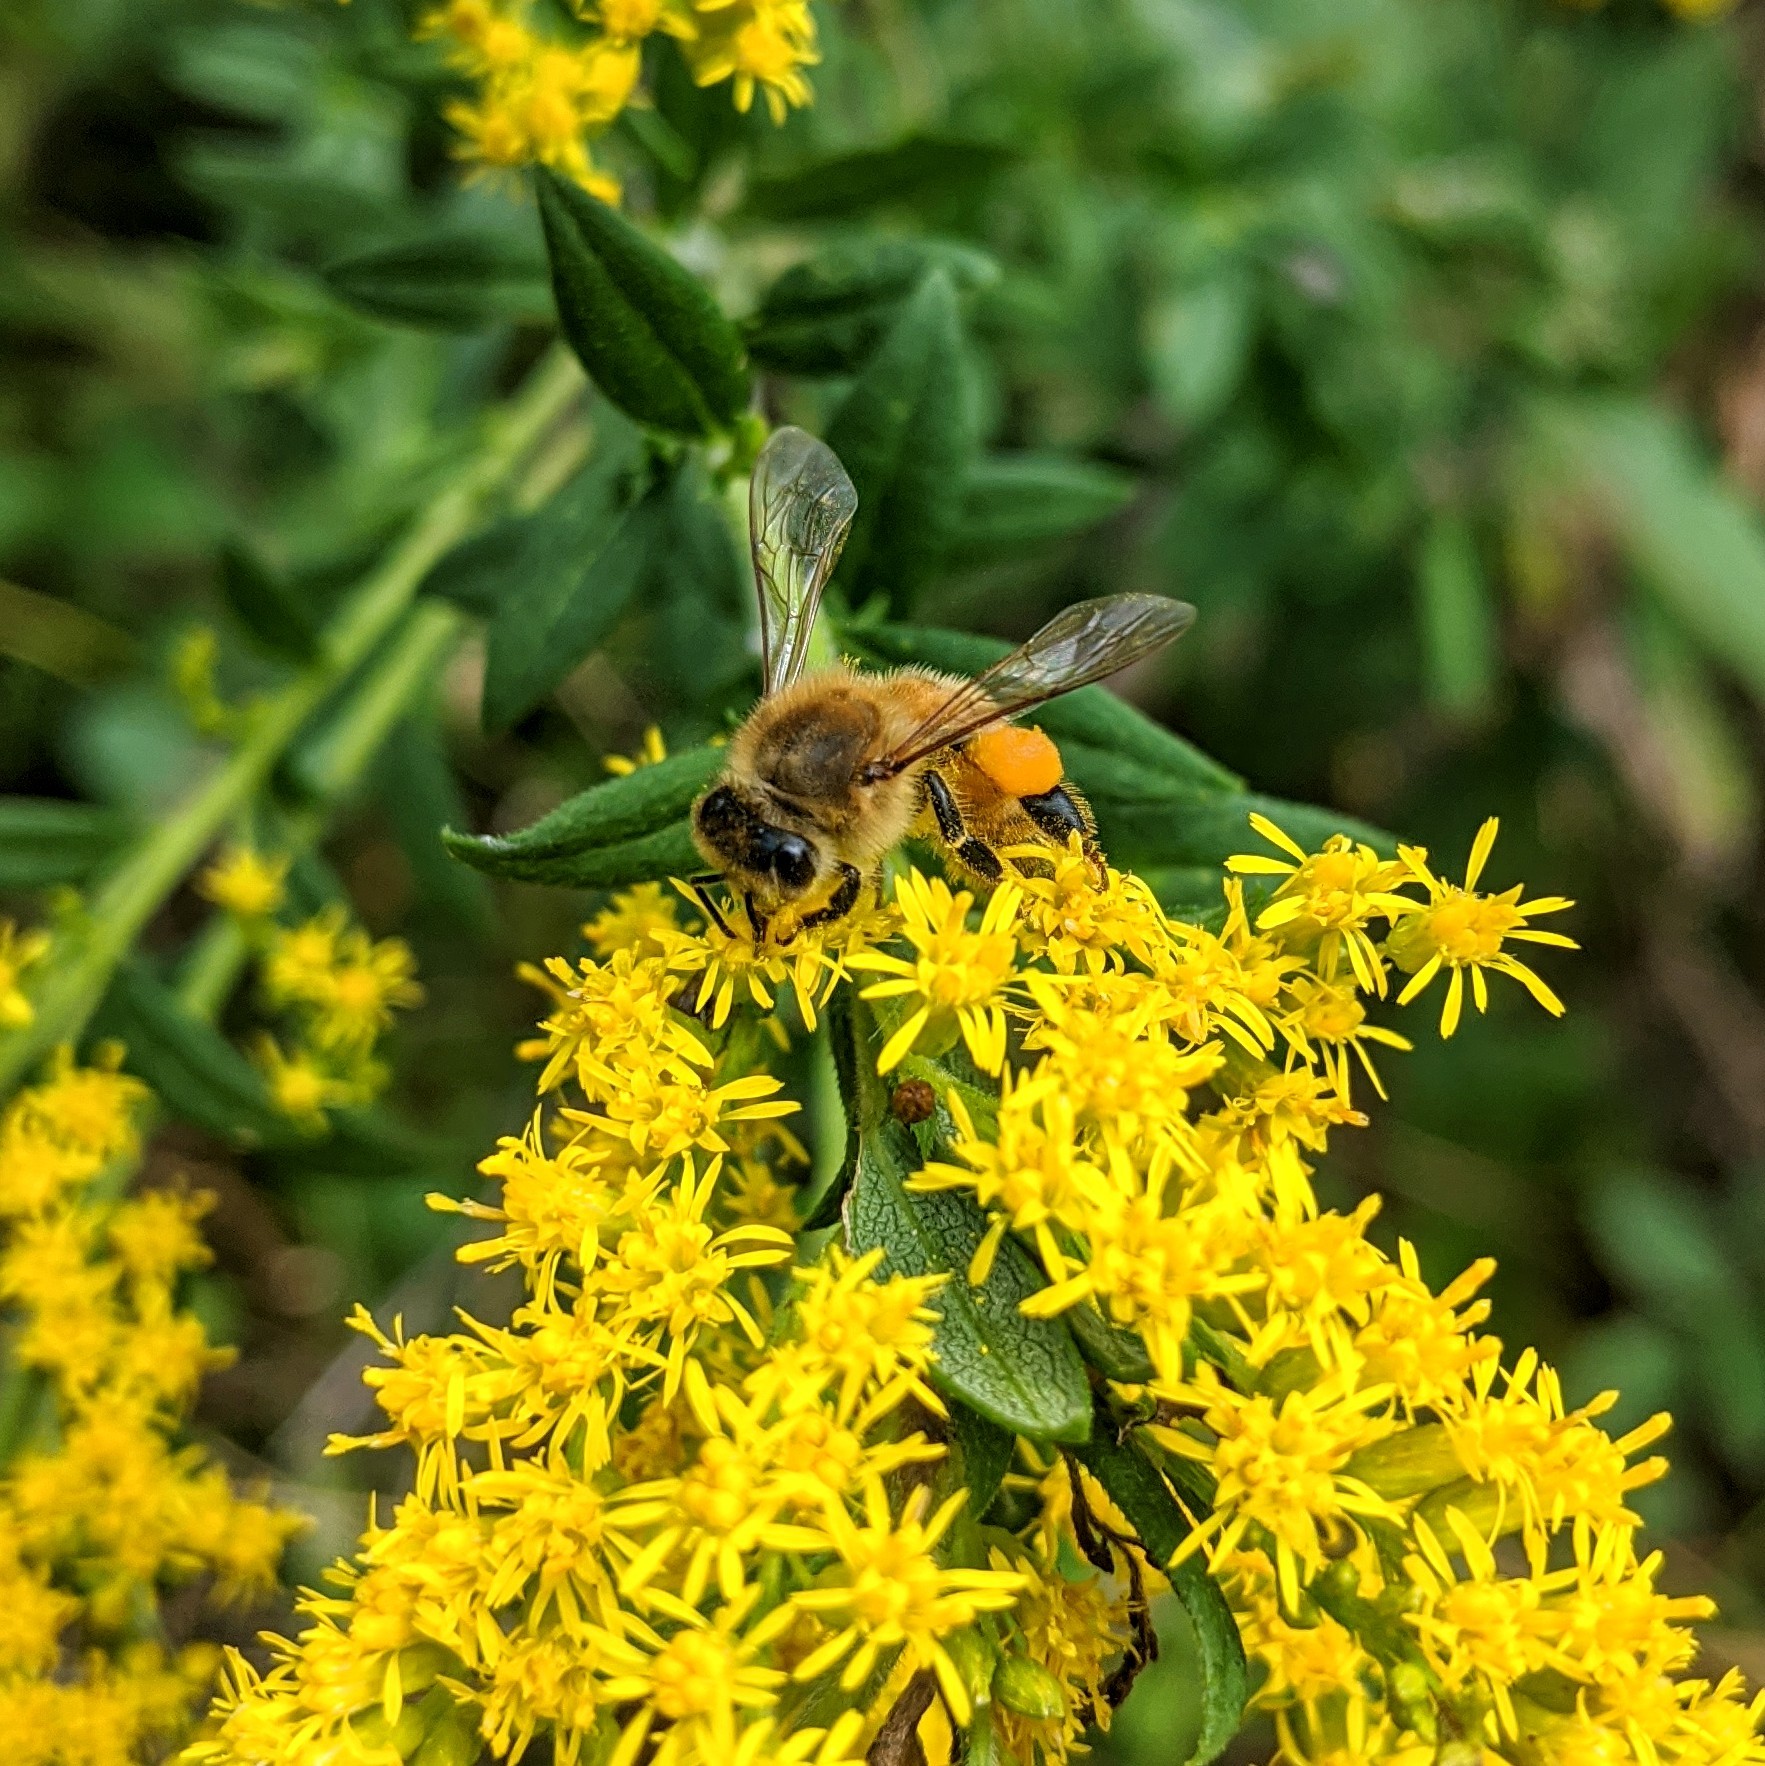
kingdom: Animalia
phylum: Arthropoda
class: Insecta
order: Hymenoptera
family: Apidae
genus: Apis
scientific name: Apis mellifera
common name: Honey bee
